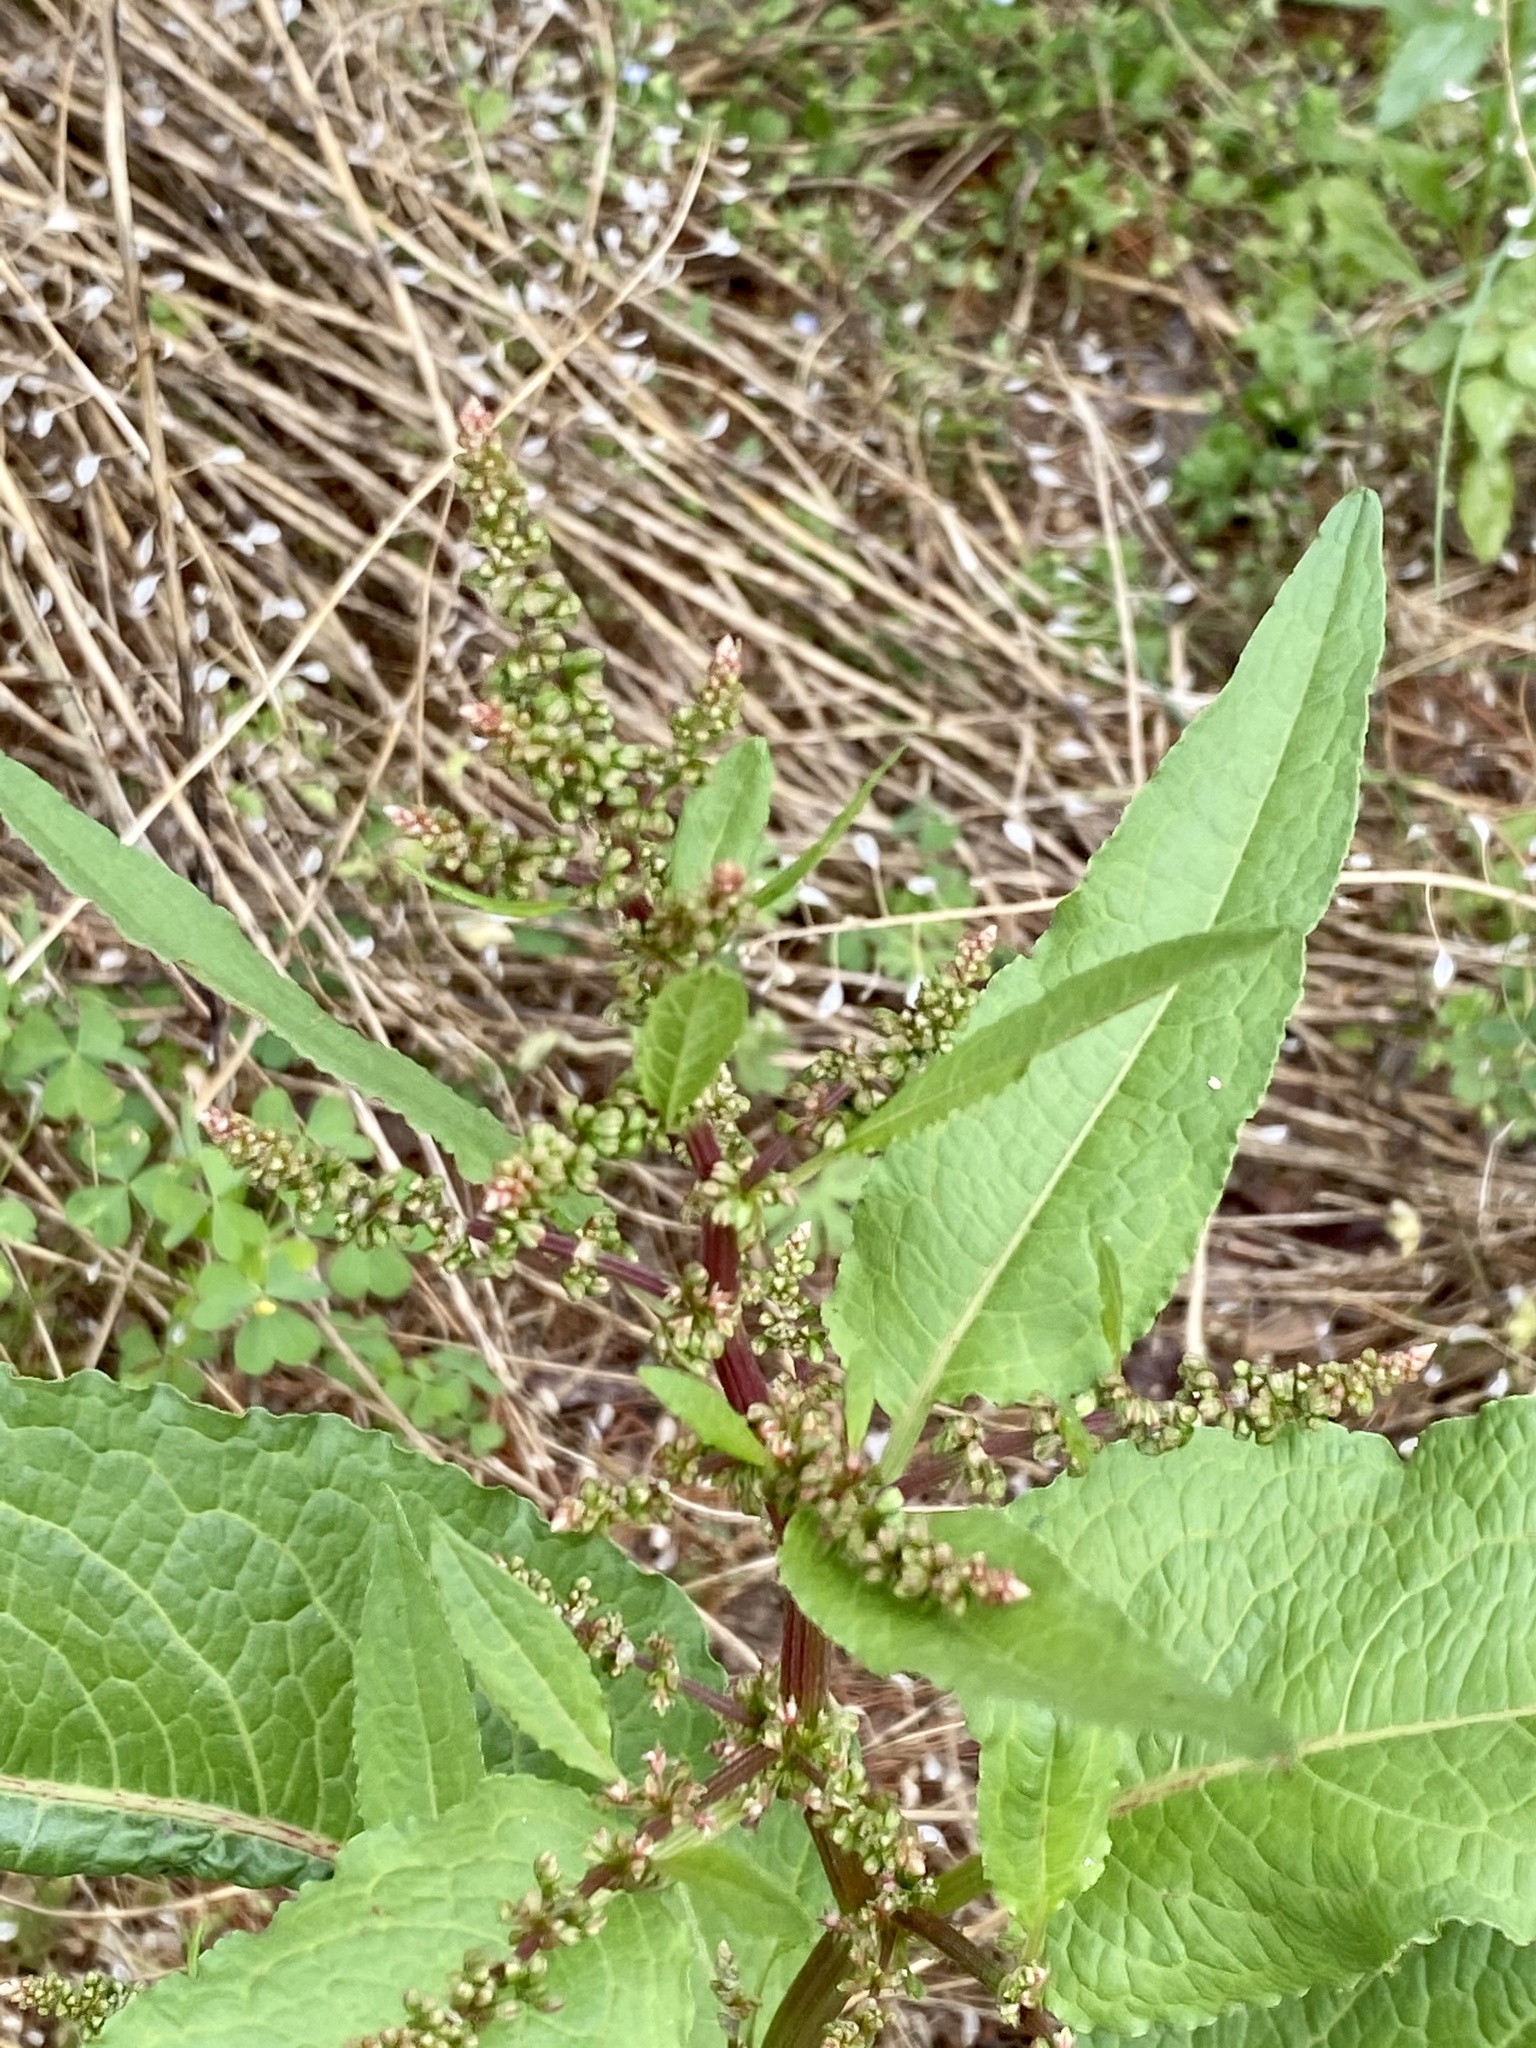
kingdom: Plantae
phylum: Tracheophyta
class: Magnoliopsida
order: Caryophyllales
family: Polygonaceae
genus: Rumex
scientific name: Rumex obtusifolius
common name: Bitter dock
